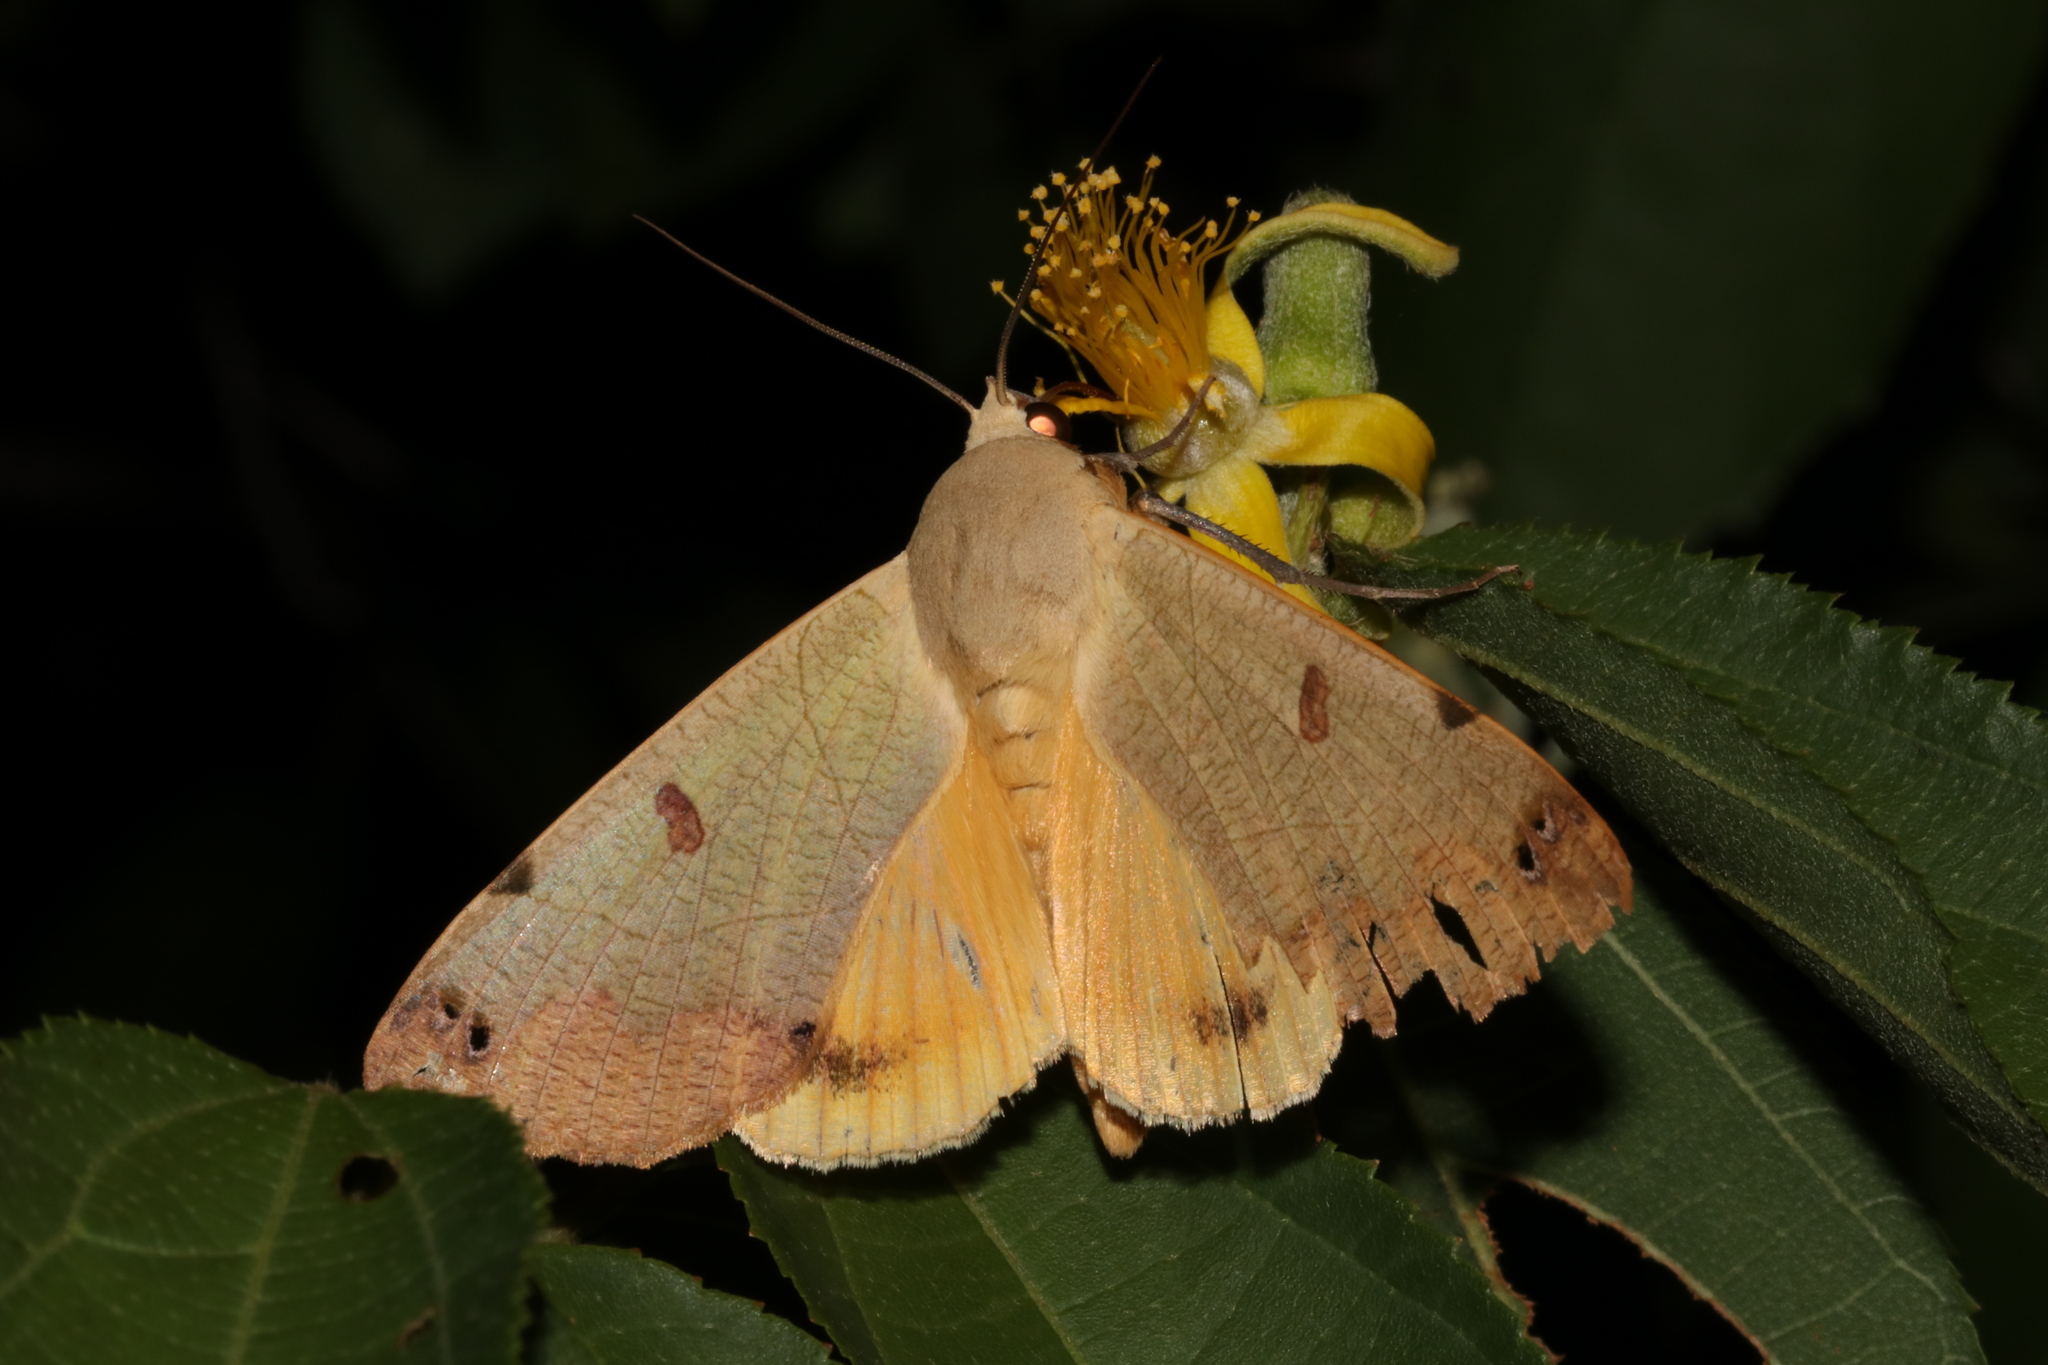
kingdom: Animalia
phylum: Arthropoda
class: Insecta
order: Lepidoptera
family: Erebidae
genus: Ophiusa
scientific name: Ophiusa tirhaca
